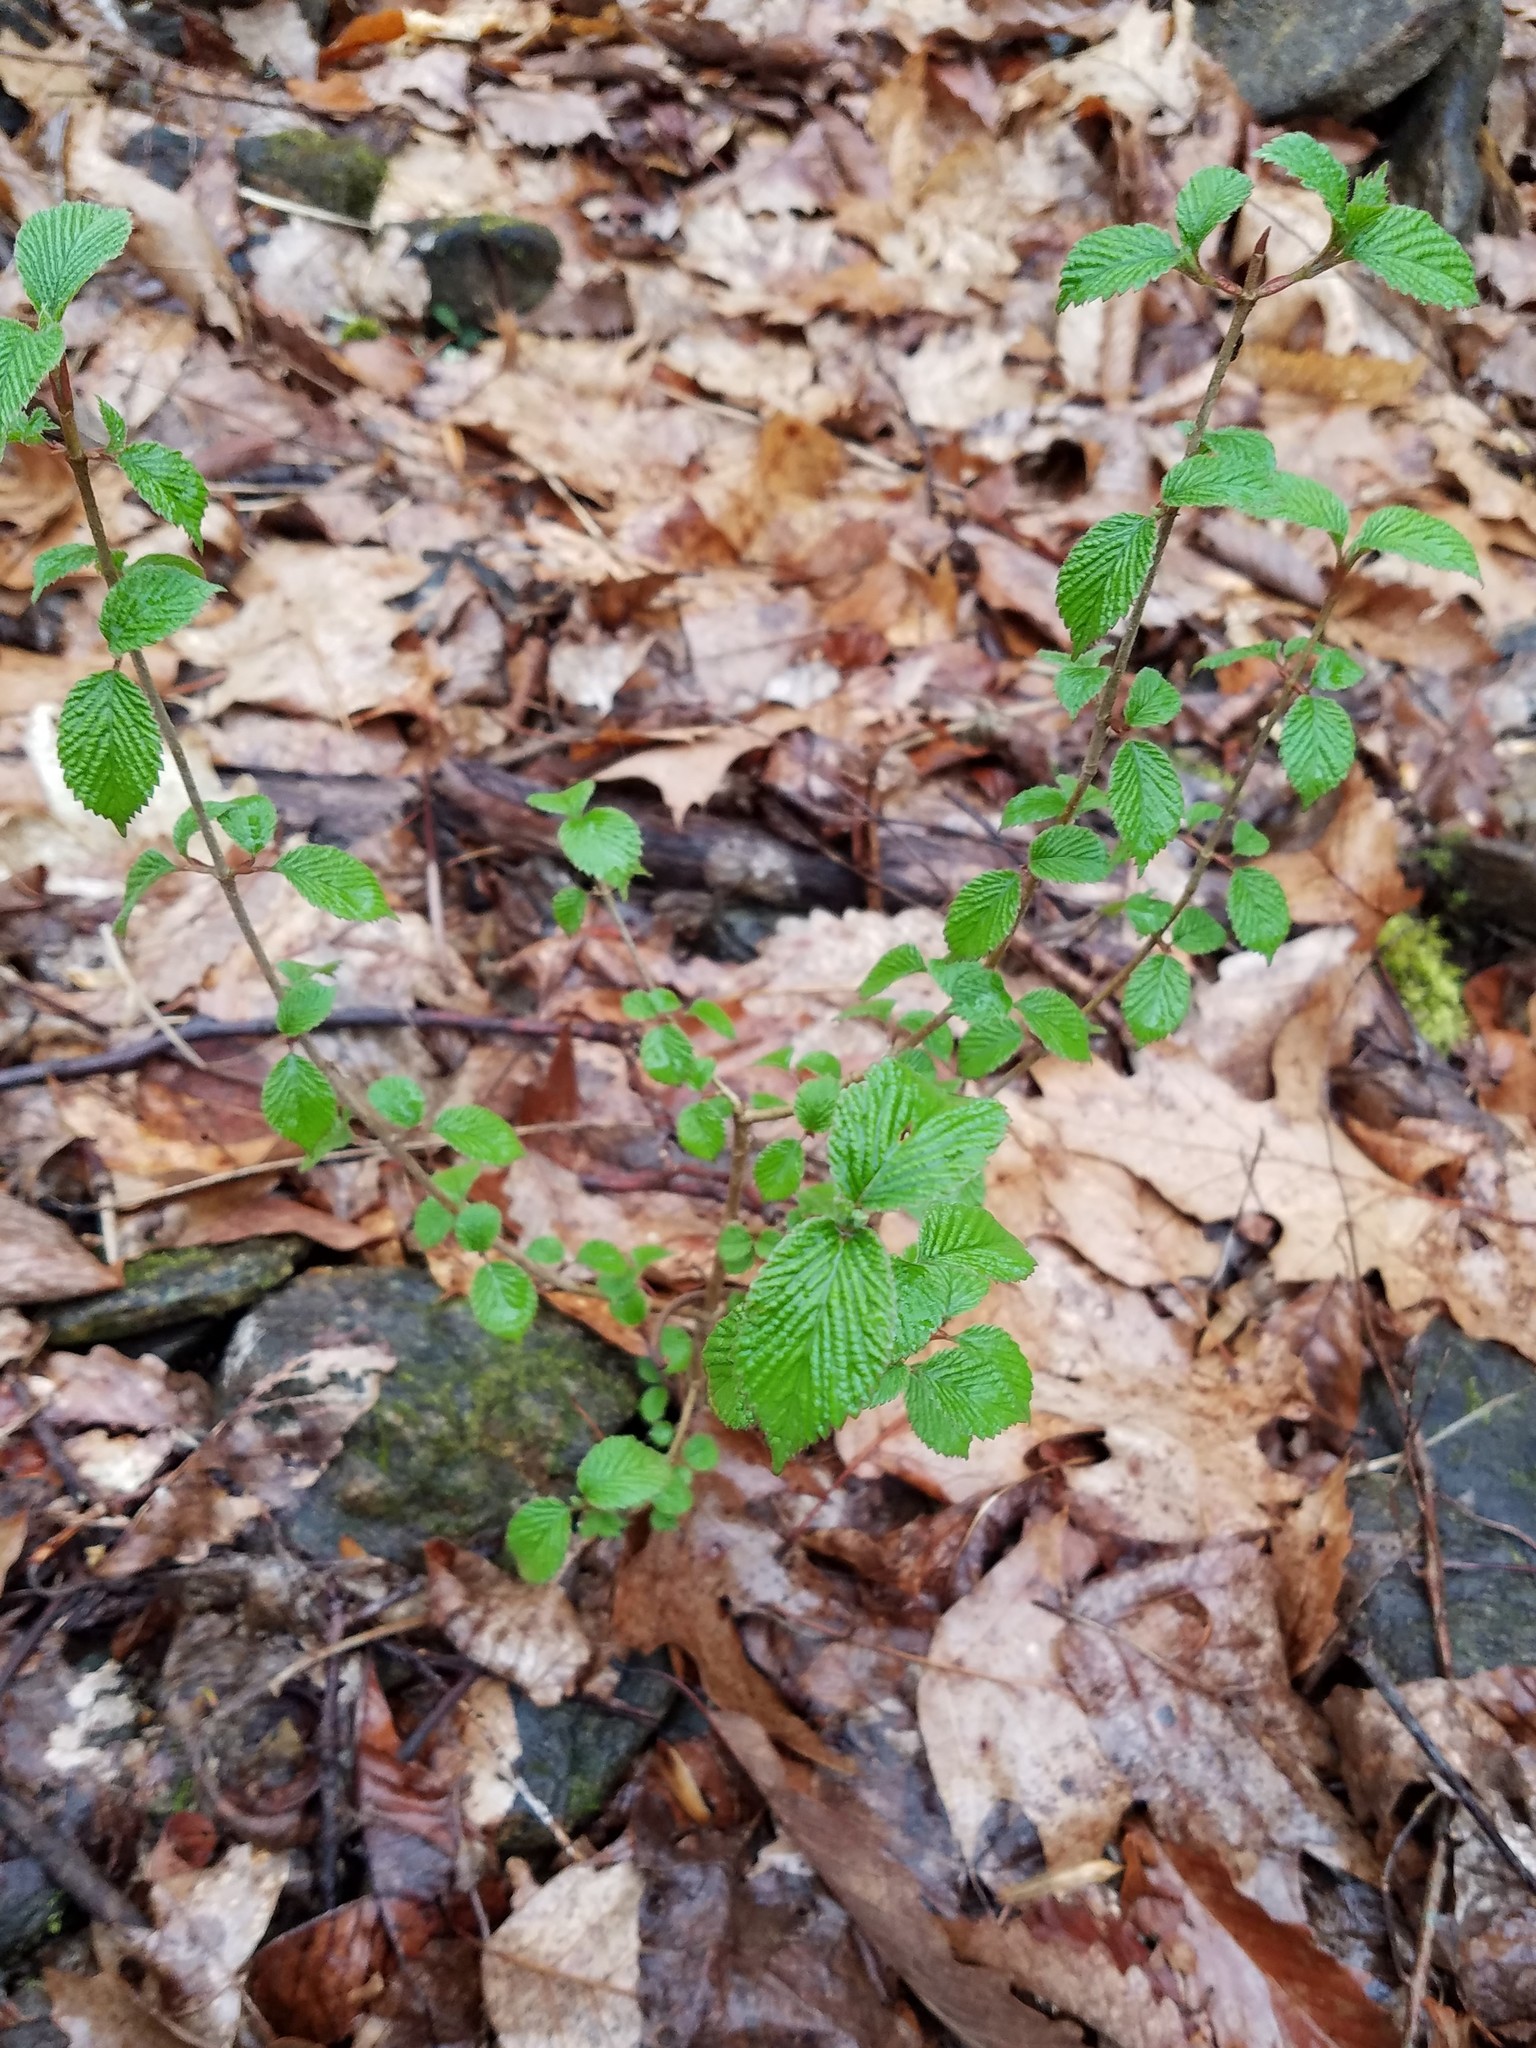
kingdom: Plantae
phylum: Tracheophyta
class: Magnoliopsida
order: Dipsacales
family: Viburnaceae
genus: Viburnum
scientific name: Viburnum plicatum
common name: Japanese snowball
